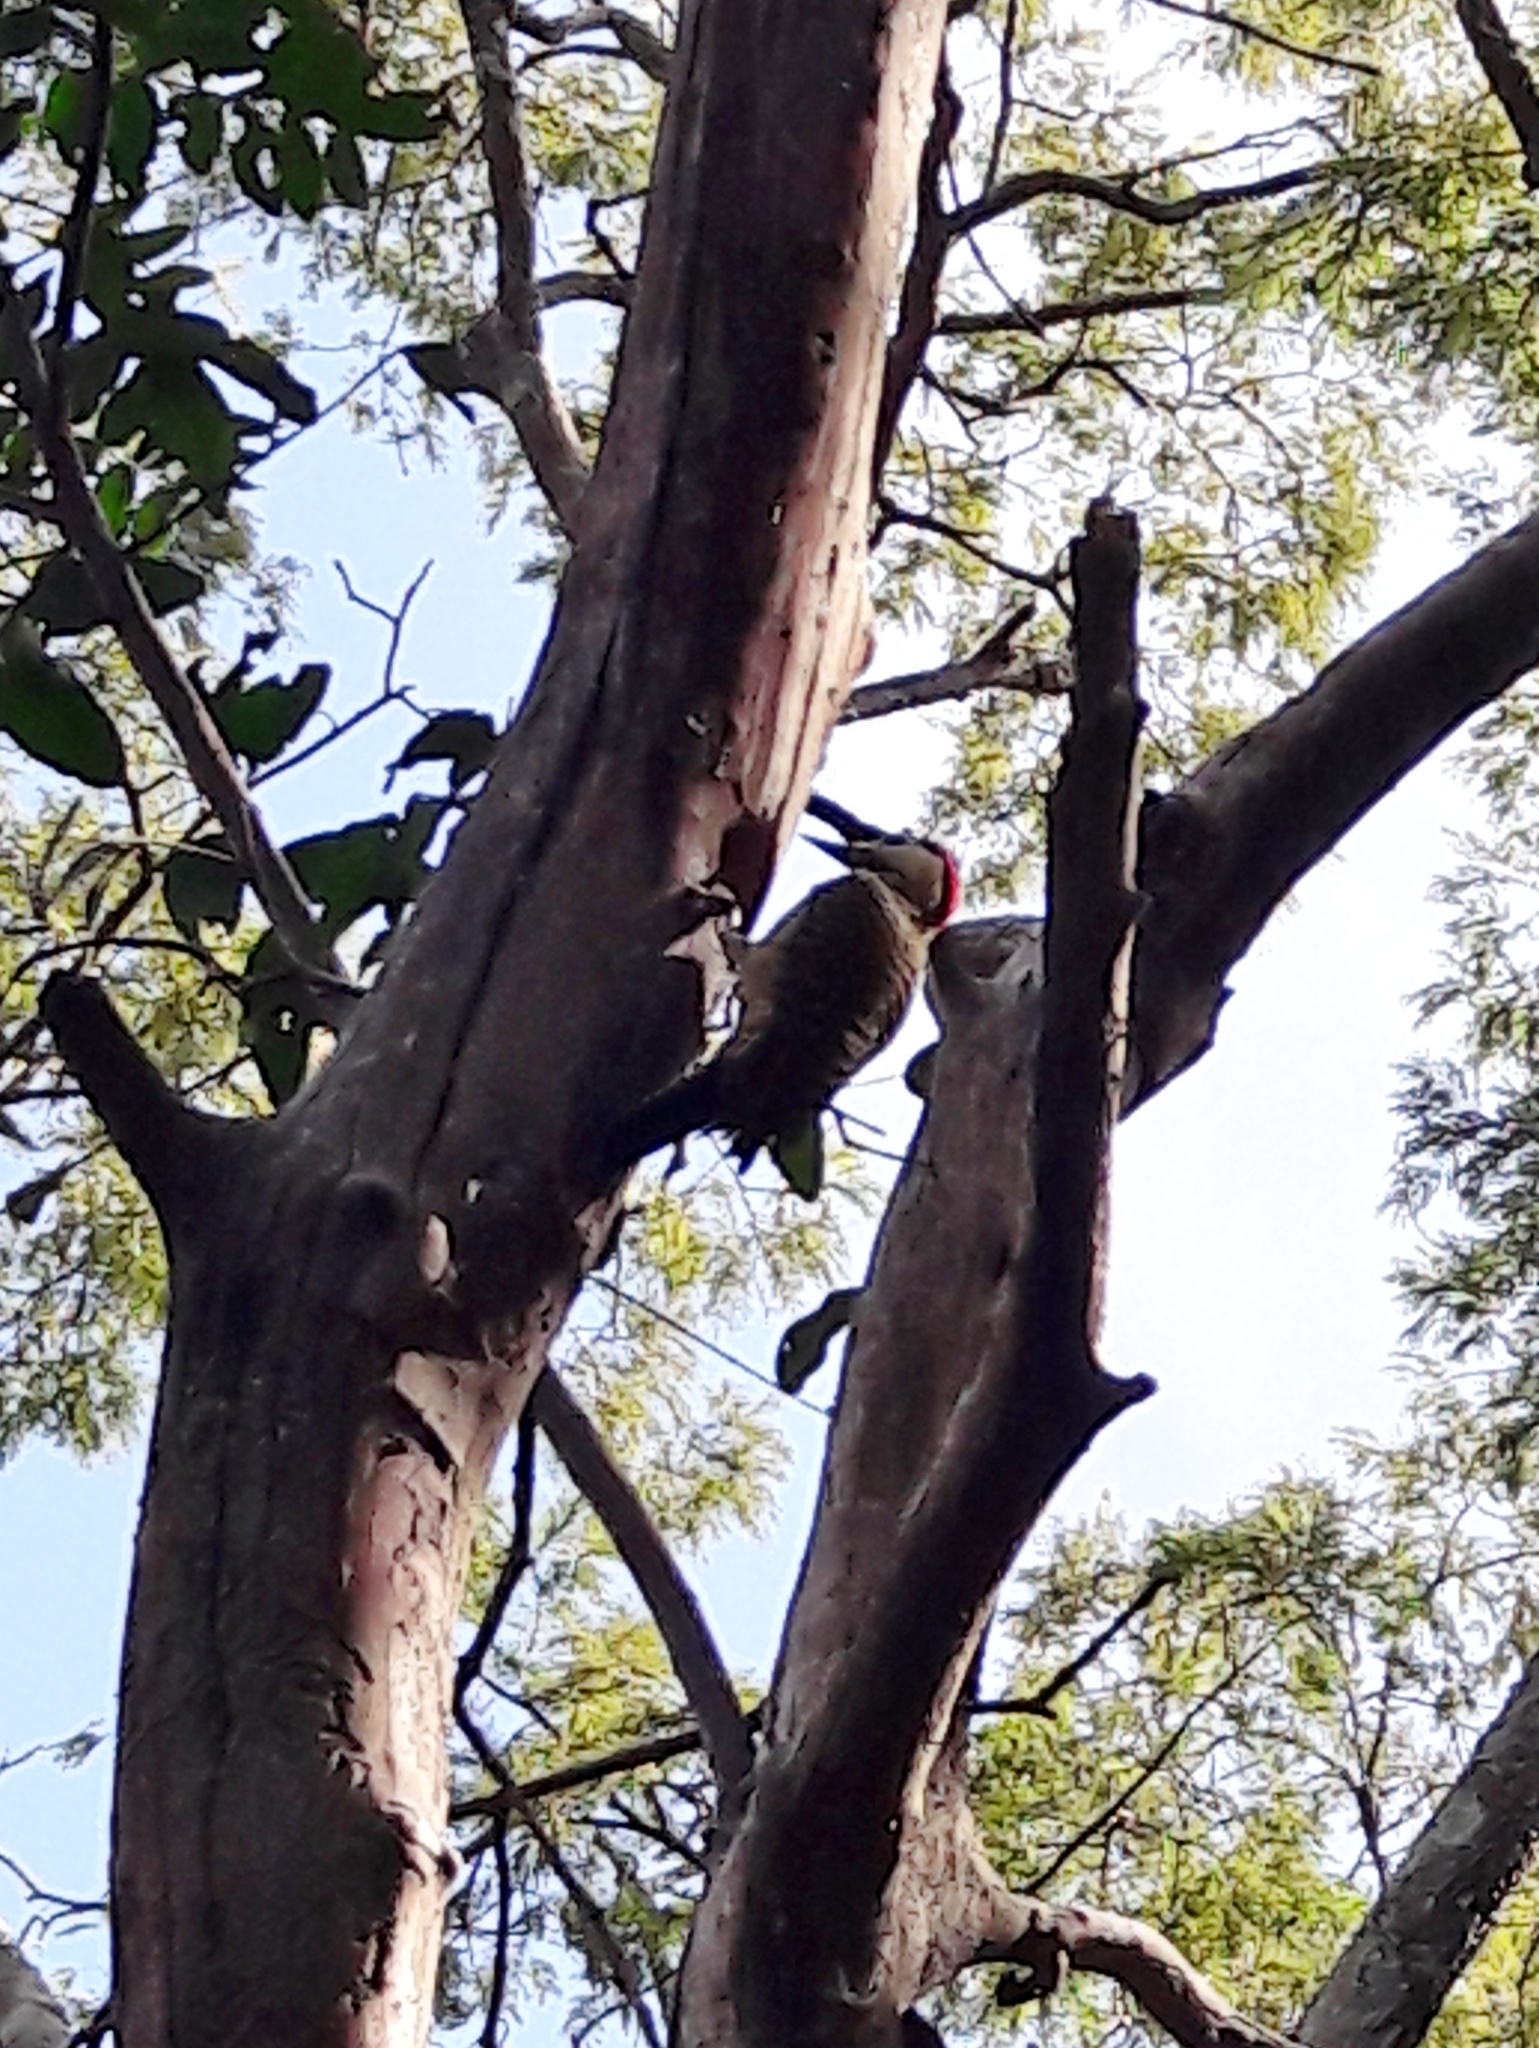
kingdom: Animalia
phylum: Chordata
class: Aves
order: Piciformes
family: Picidae
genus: Colaptes
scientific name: Colaptes melanochloros
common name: Green-barred woodpecker
